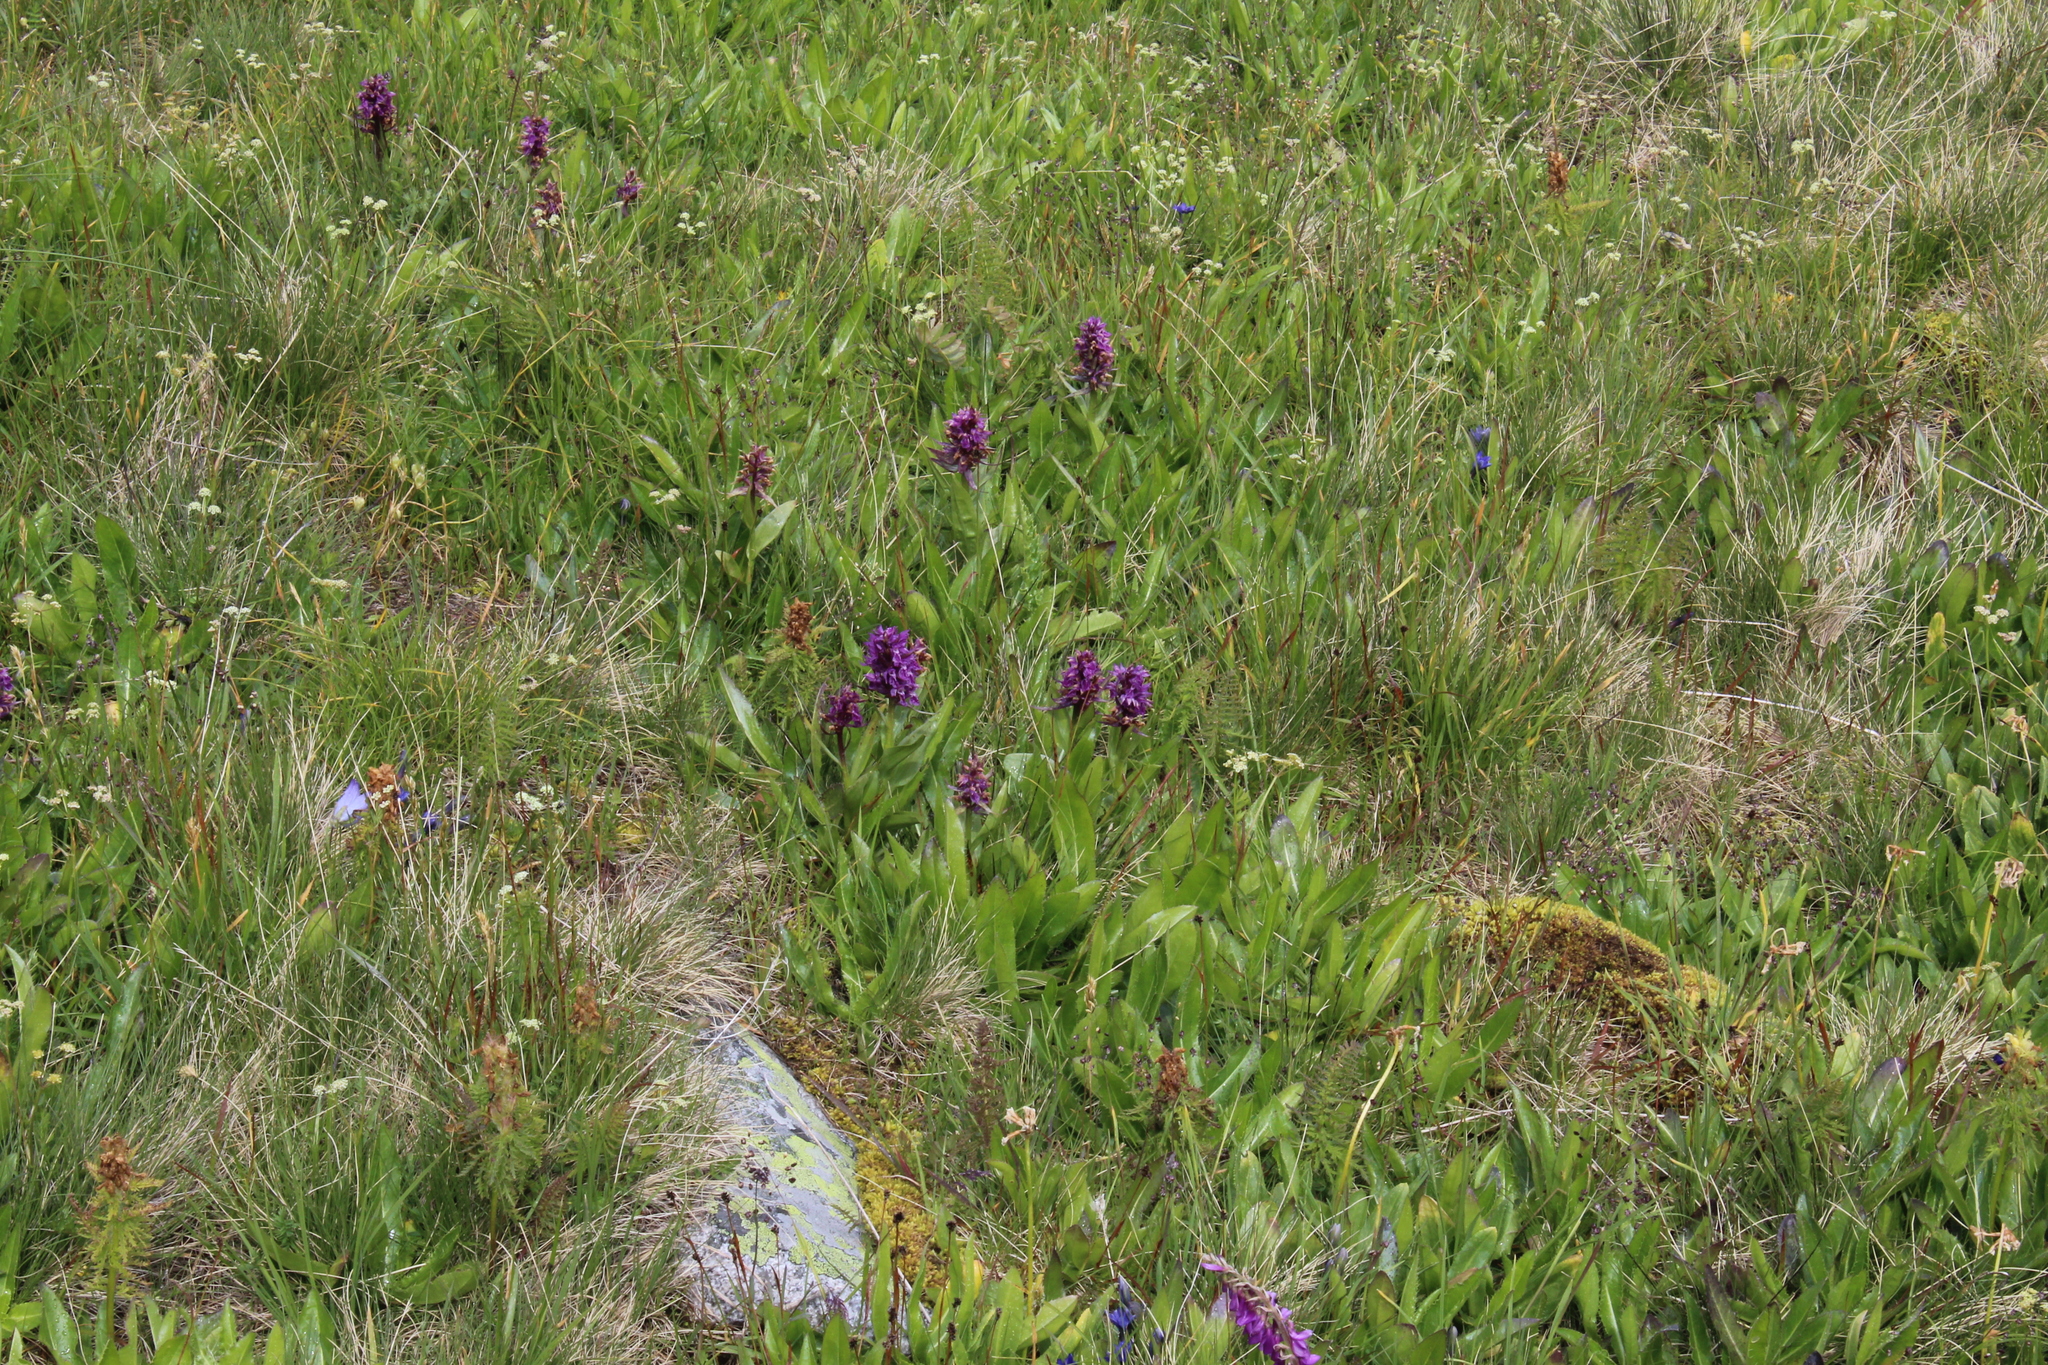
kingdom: Plantae
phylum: Tracheophyta
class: Liliopsida
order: Asparagales
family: Orchidaceae
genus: Dactylorhiza
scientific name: Dactylorhiza euxina
